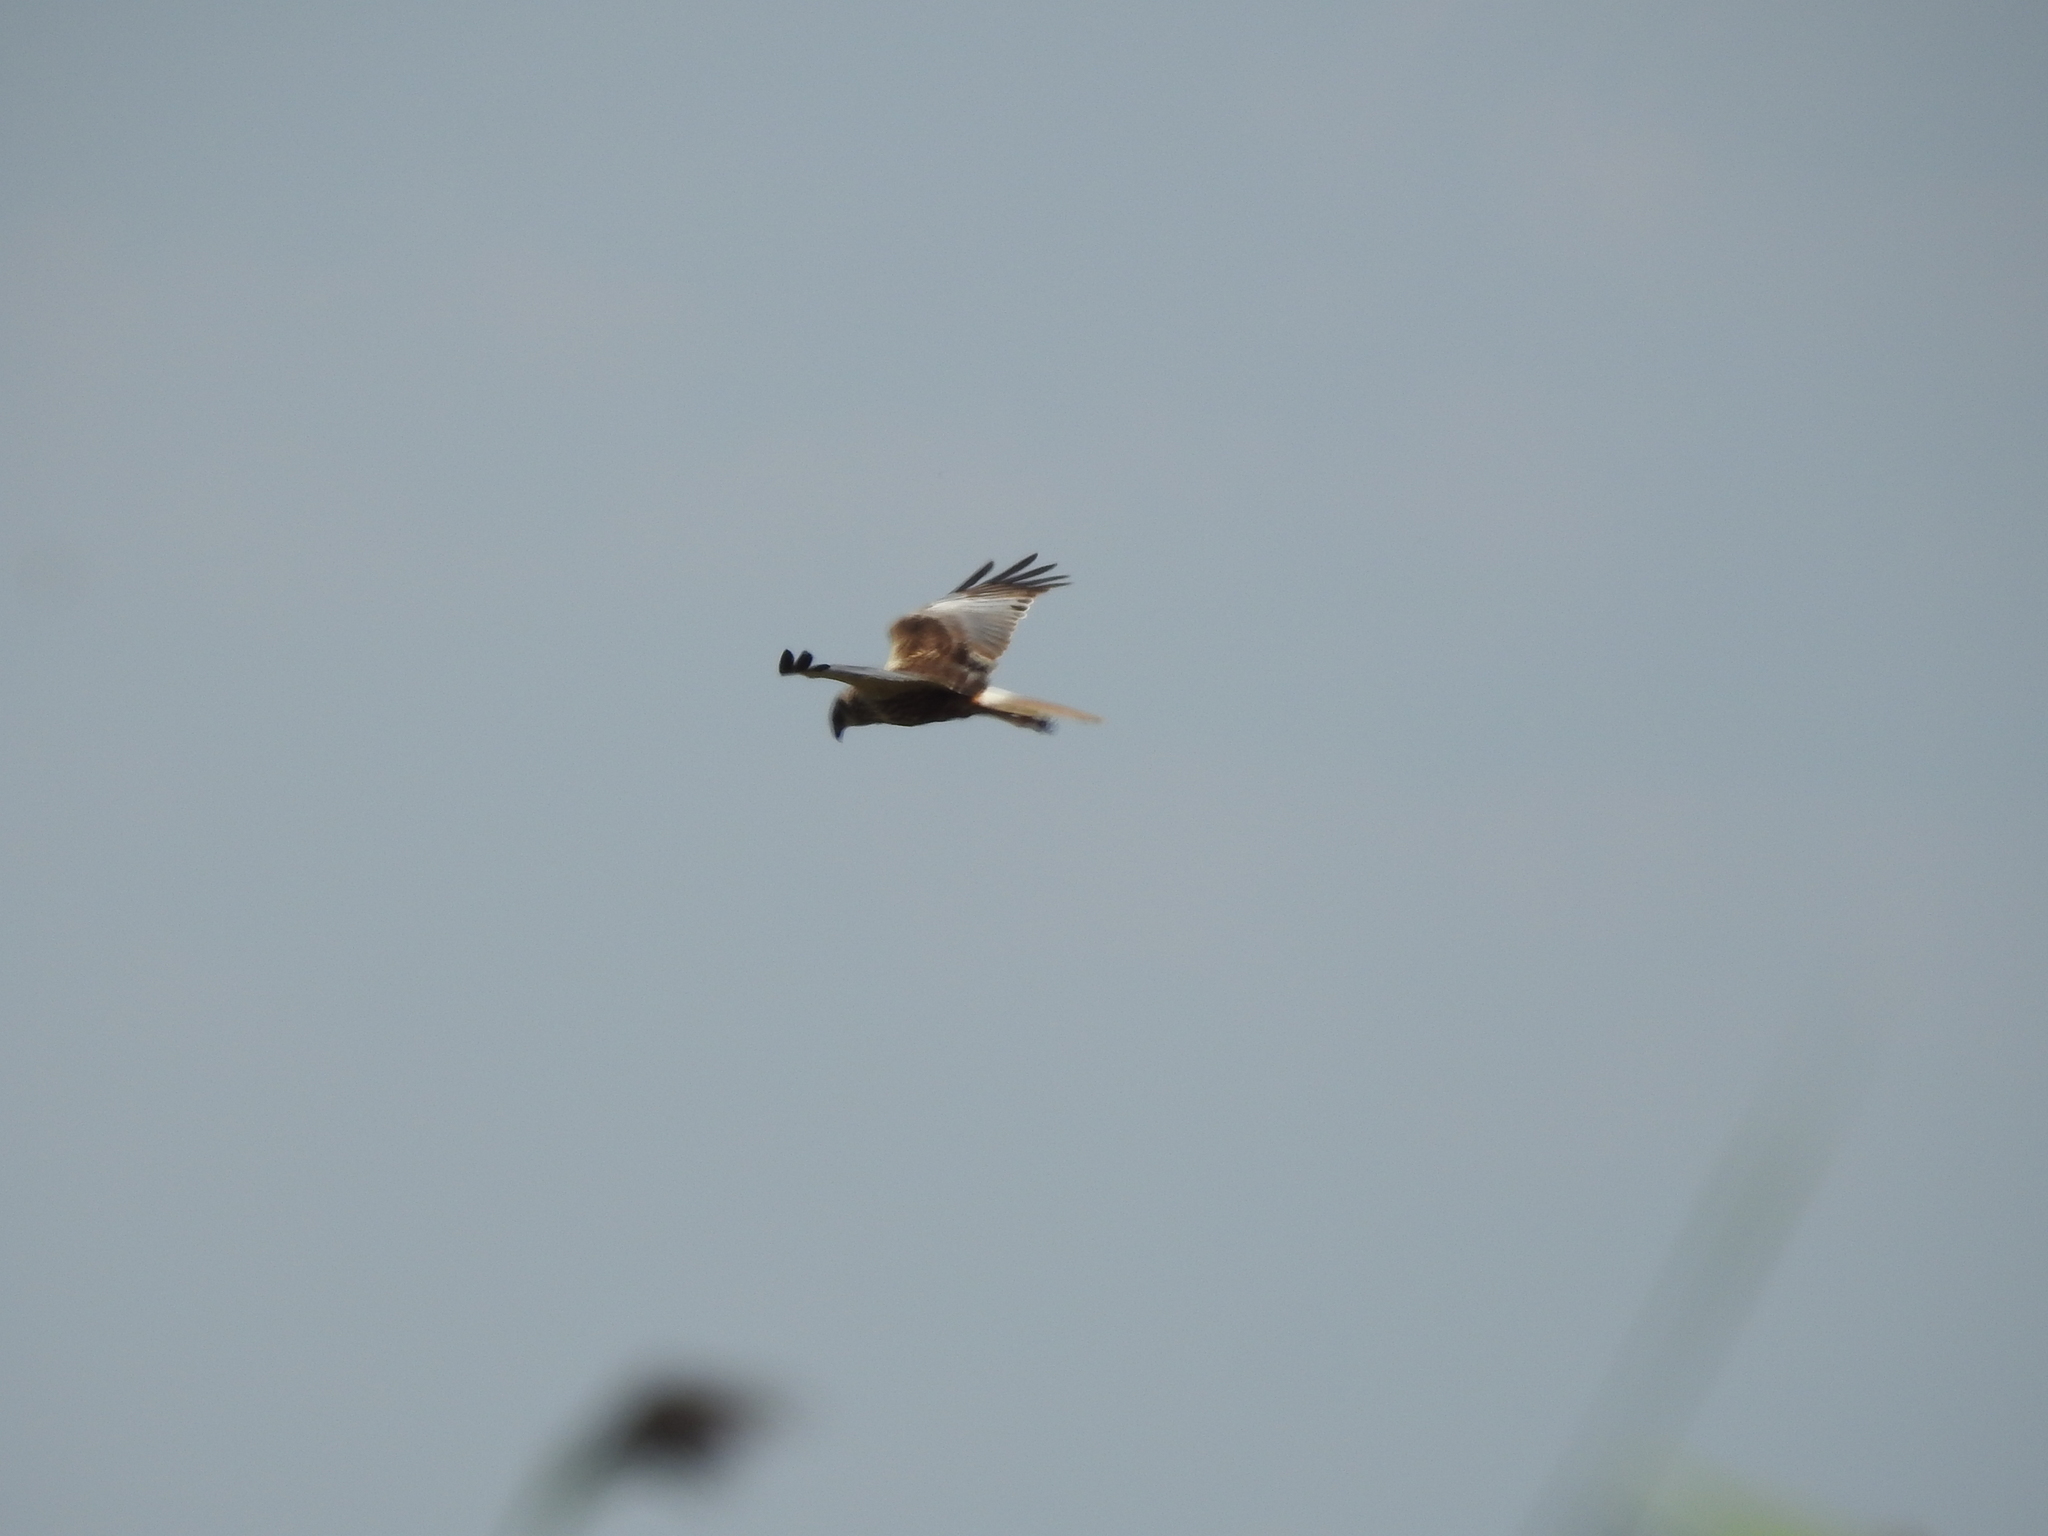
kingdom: Animalia
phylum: Chordata
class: Aves
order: Accipitriformes
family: Accipitridae
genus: Circus
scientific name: Circus aeruginosus
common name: Western marsh harrier
